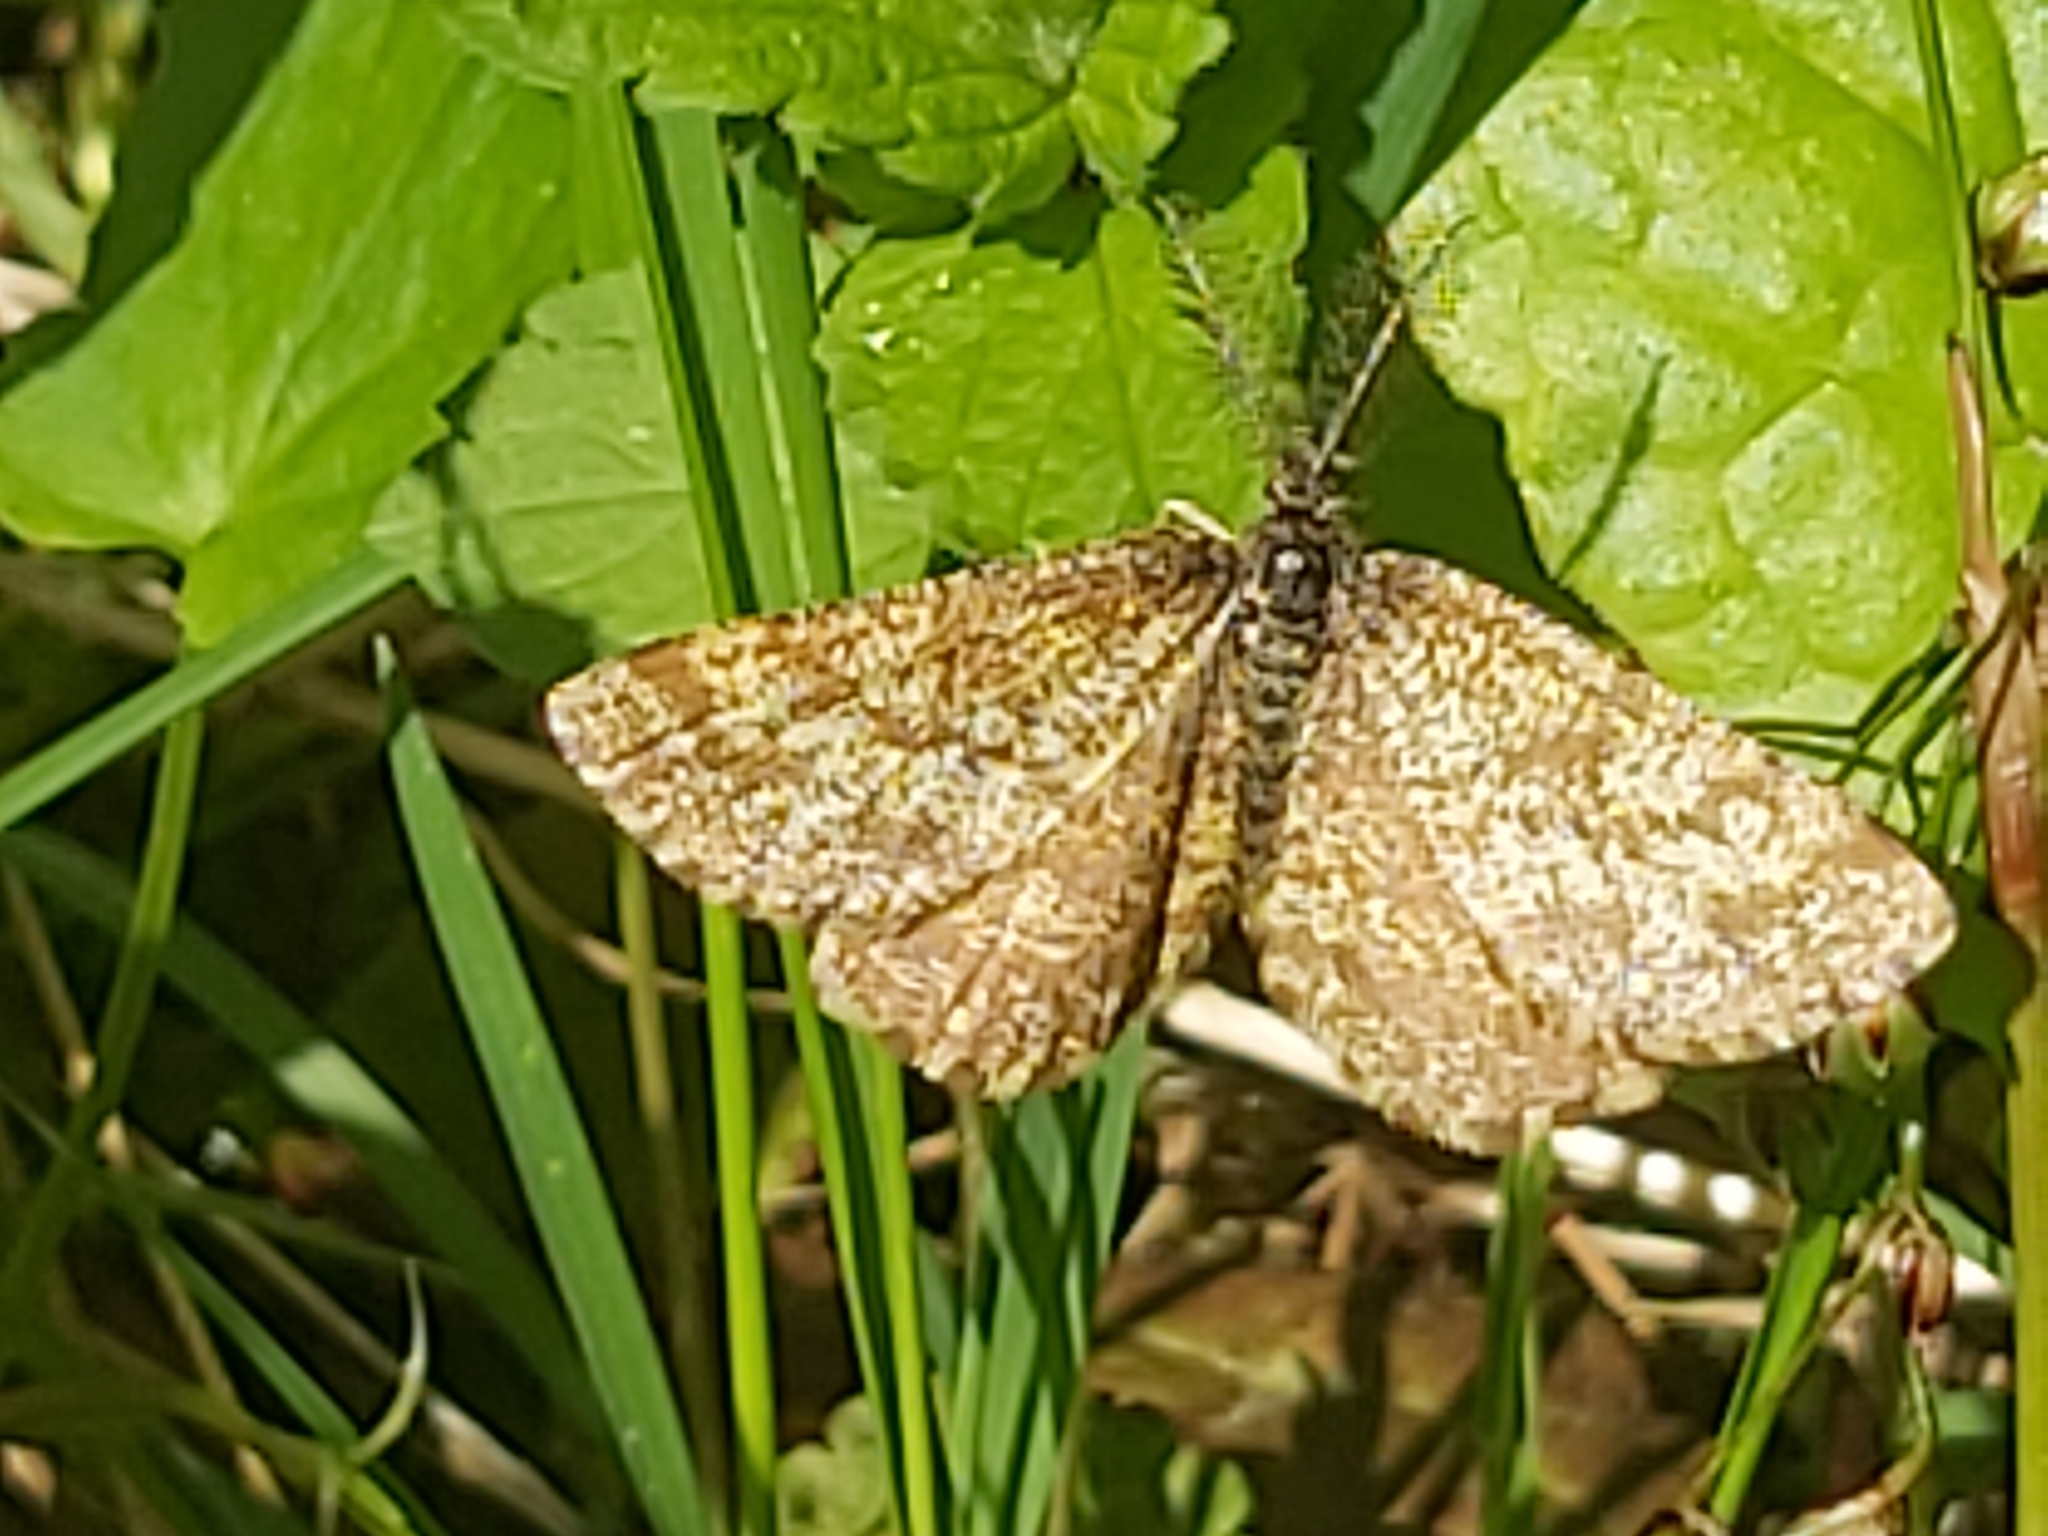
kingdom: Animalia
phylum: Arthropoda
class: Insecta
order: Lepidoptera
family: Geometridae
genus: Ematurga
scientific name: Ematurga atomaria
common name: Common heath
